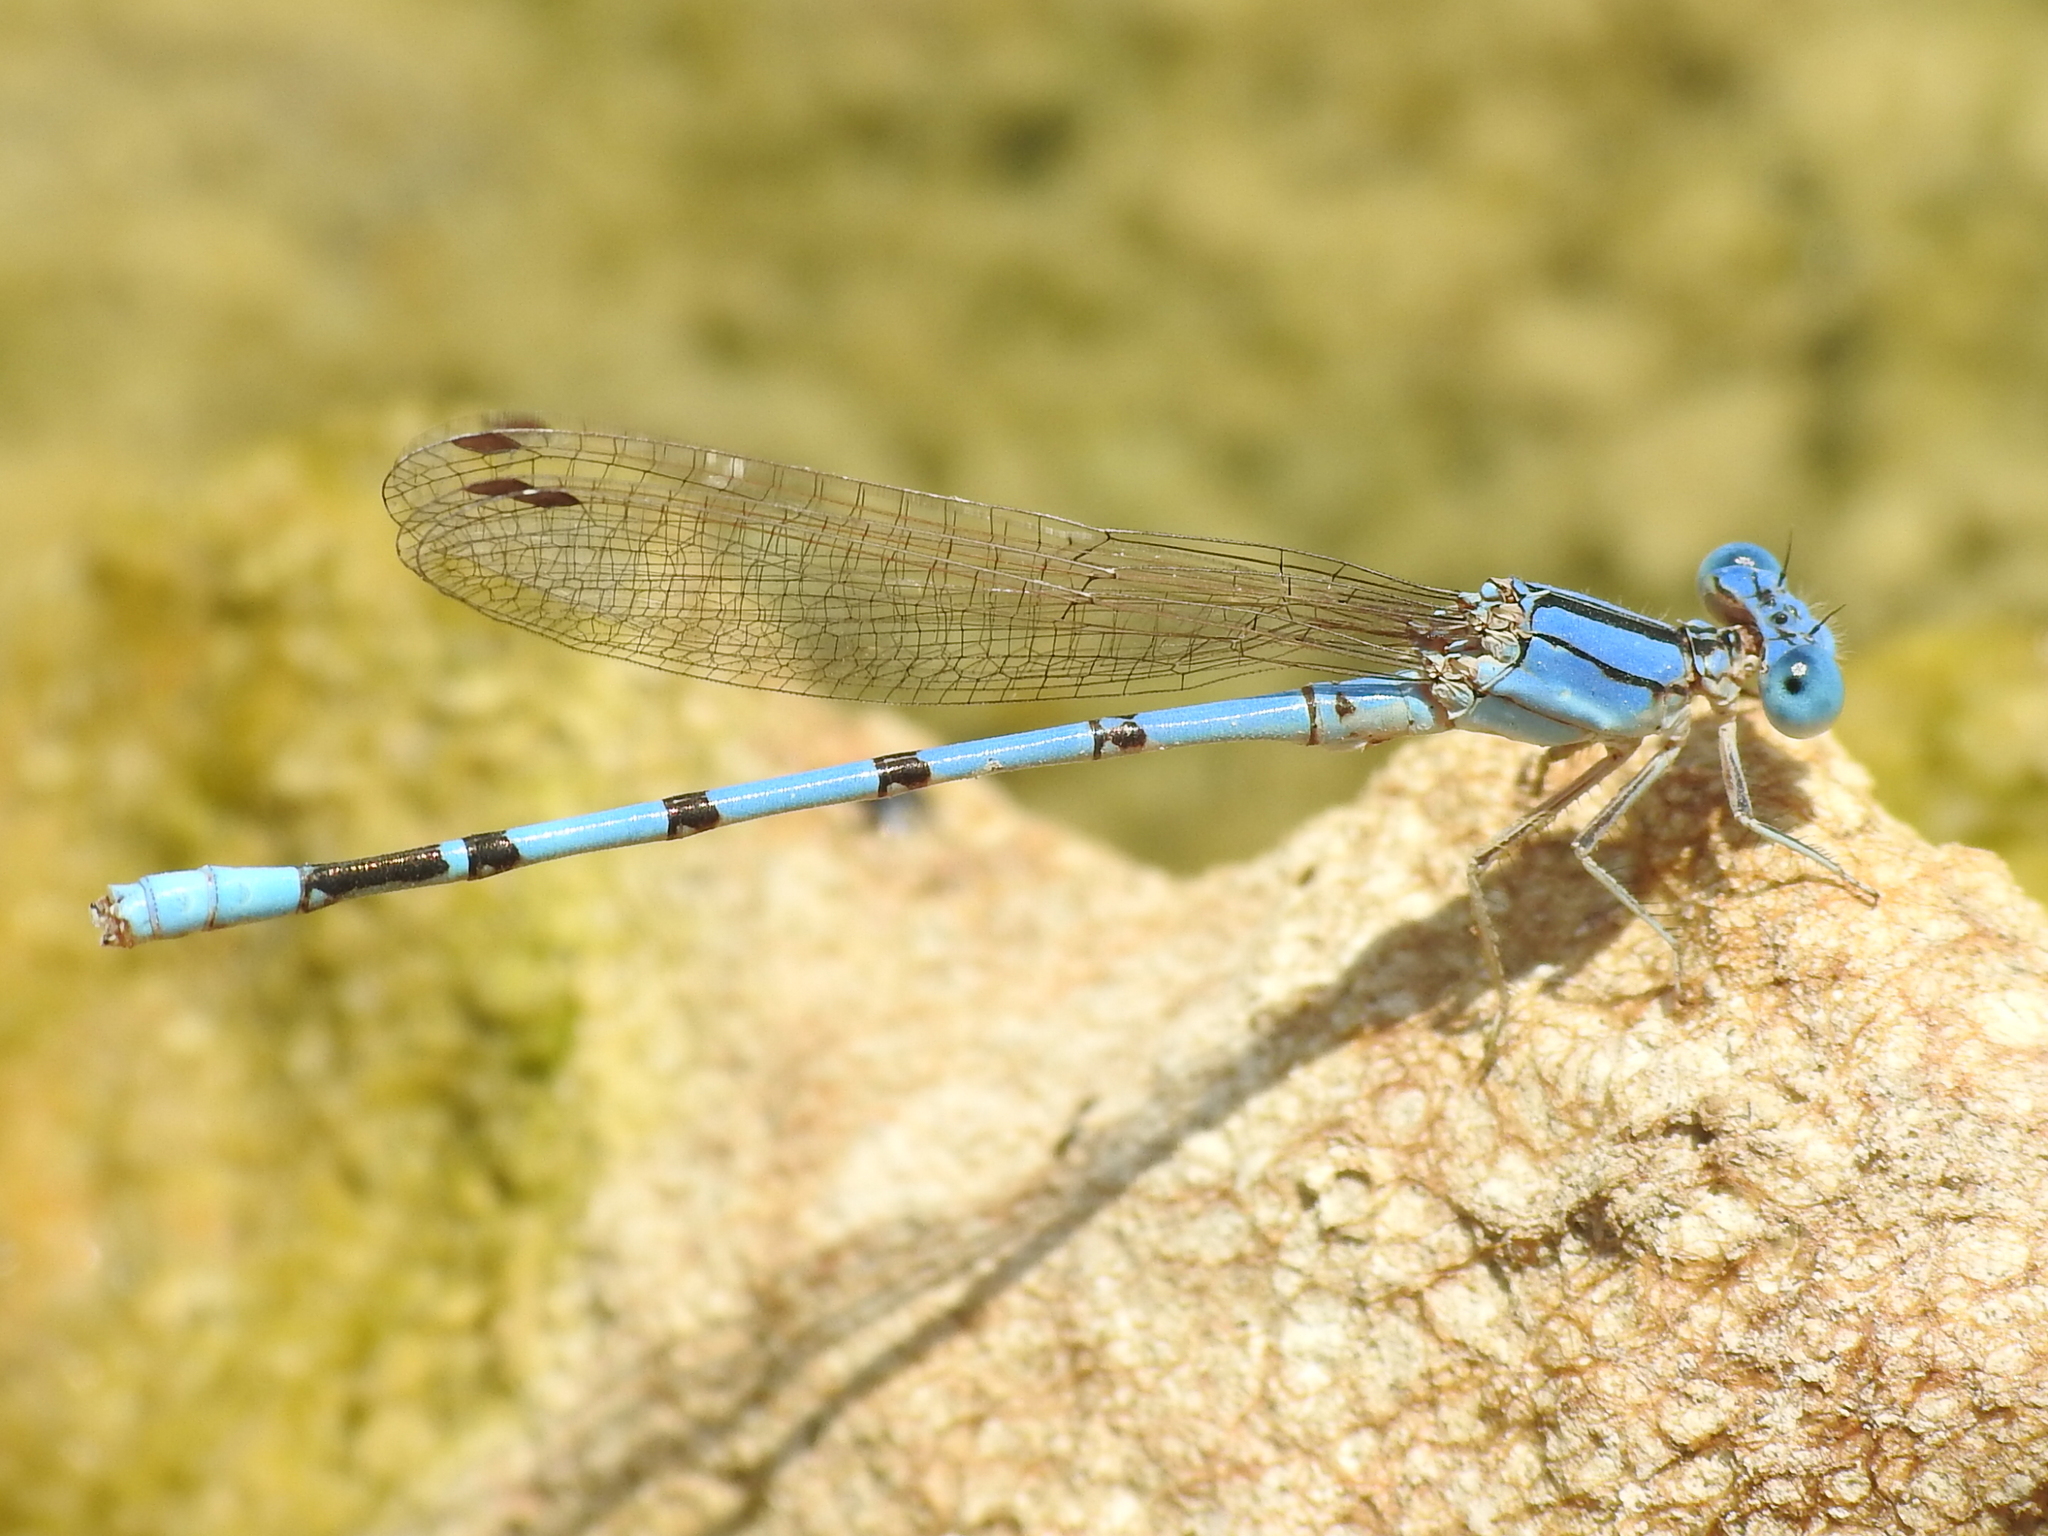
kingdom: Animalia
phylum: Arthropoda
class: Insecta
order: Odonata
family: Coenagrionidae
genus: Argia
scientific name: Argia nahuana
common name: Aztec dancer
